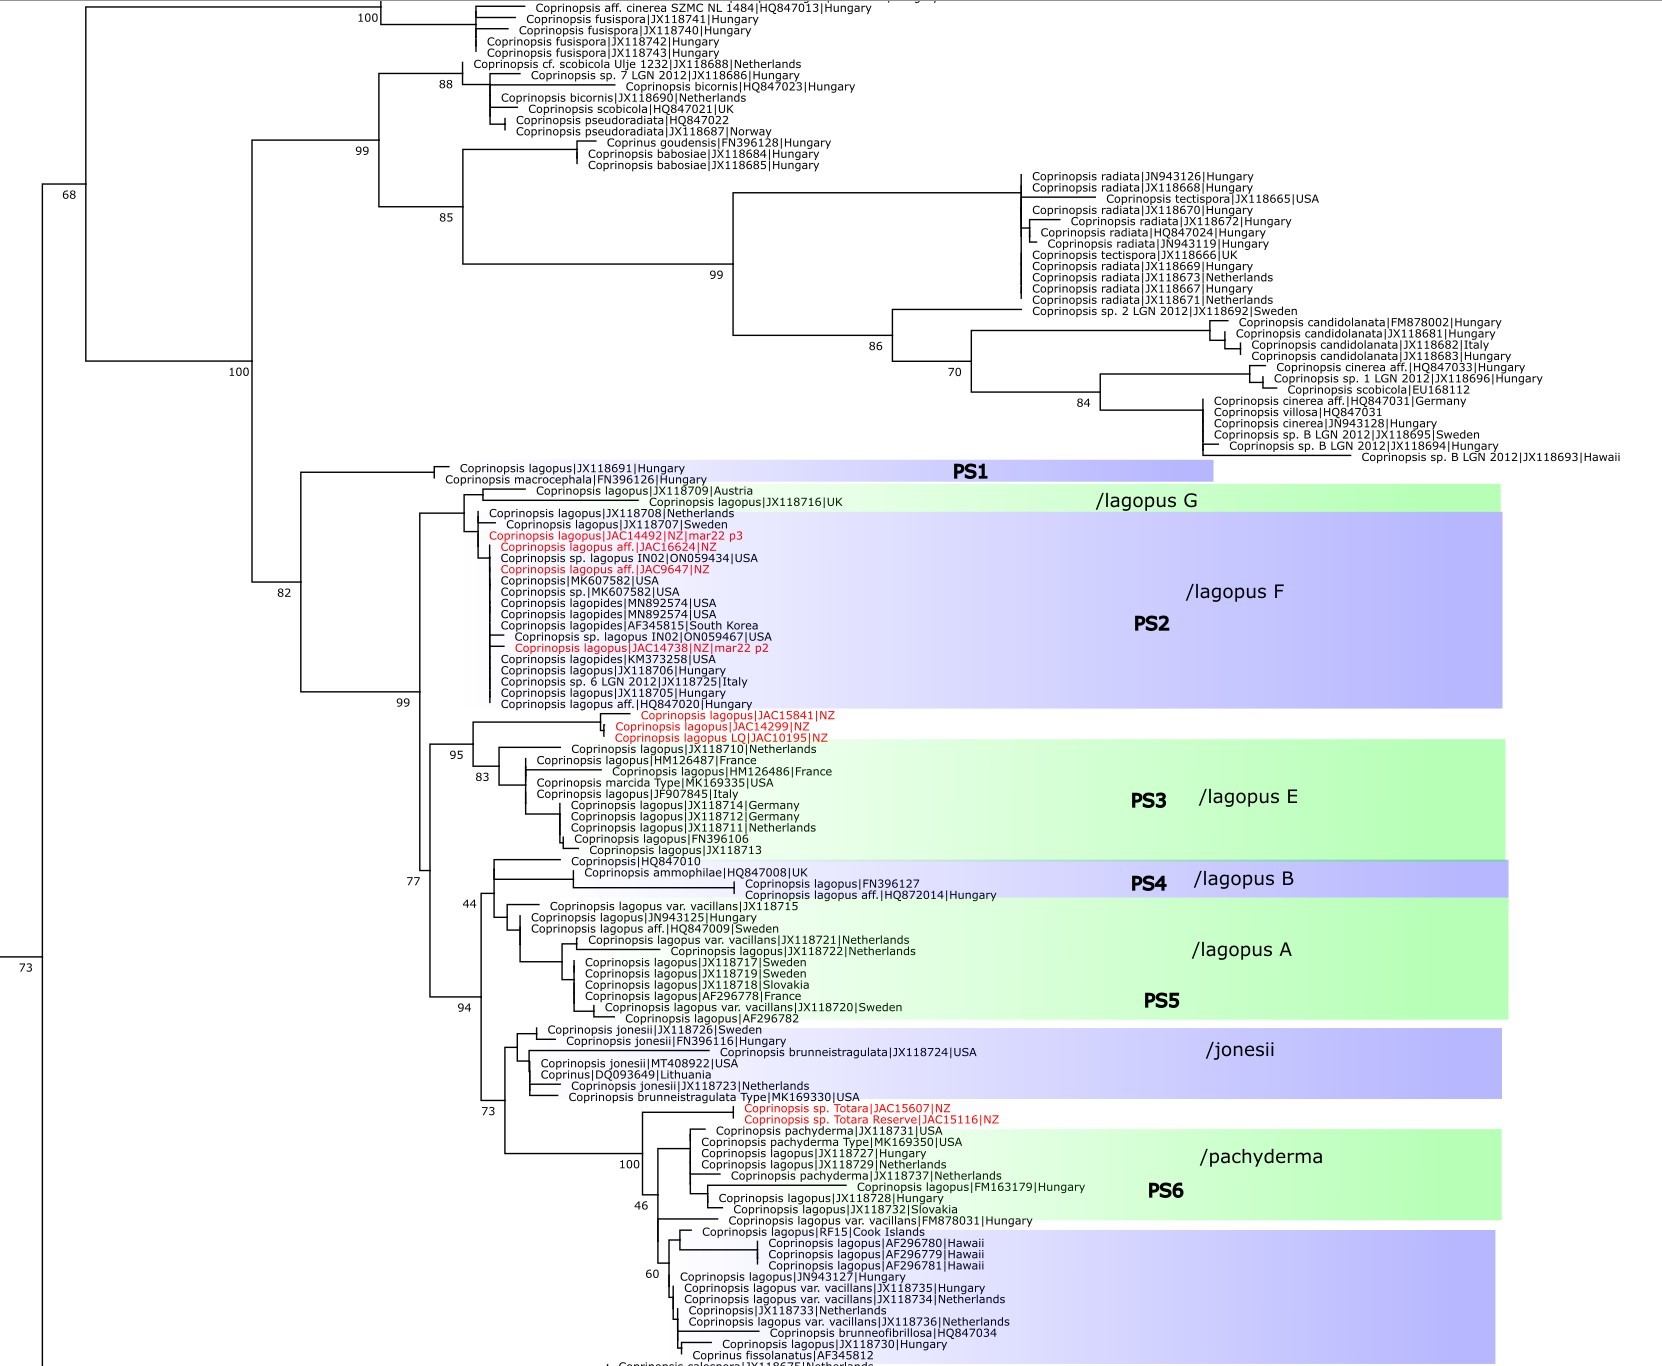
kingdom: Fungi
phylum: Basidiomycota
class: Agaricomycetes
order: Agaricales
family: Psathyrellaceae
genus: Coprinopsis
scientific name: Coprinopsis lagopides
